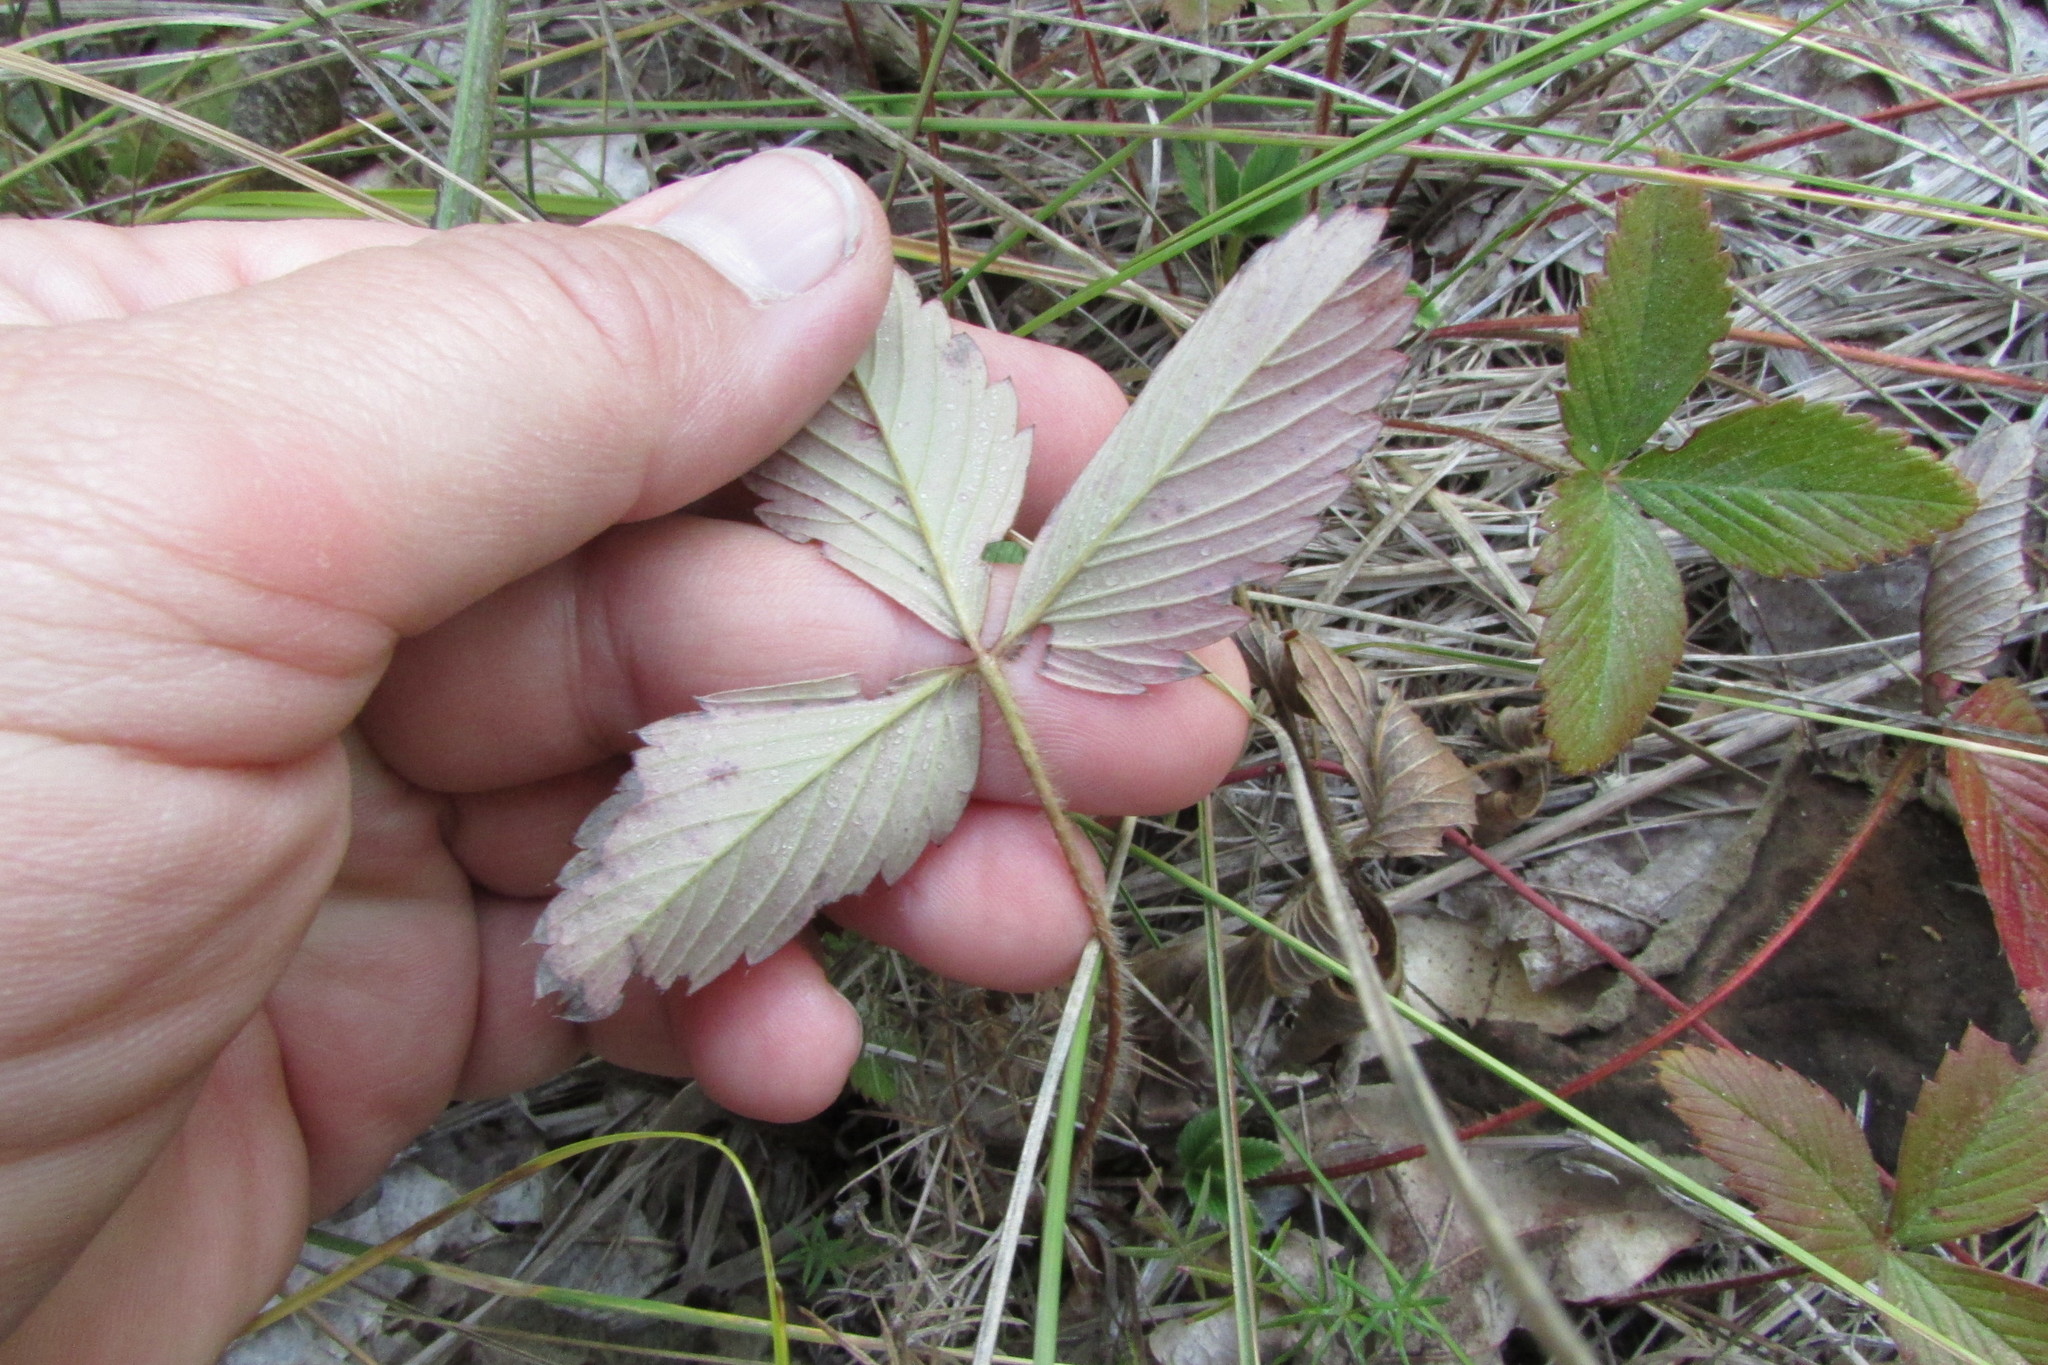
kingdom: Plantae
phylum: Tracheophyta
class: Magnoliopsida
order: Rosales
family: Rosaceae
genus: Fragaria
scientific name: Fragaria viridis
